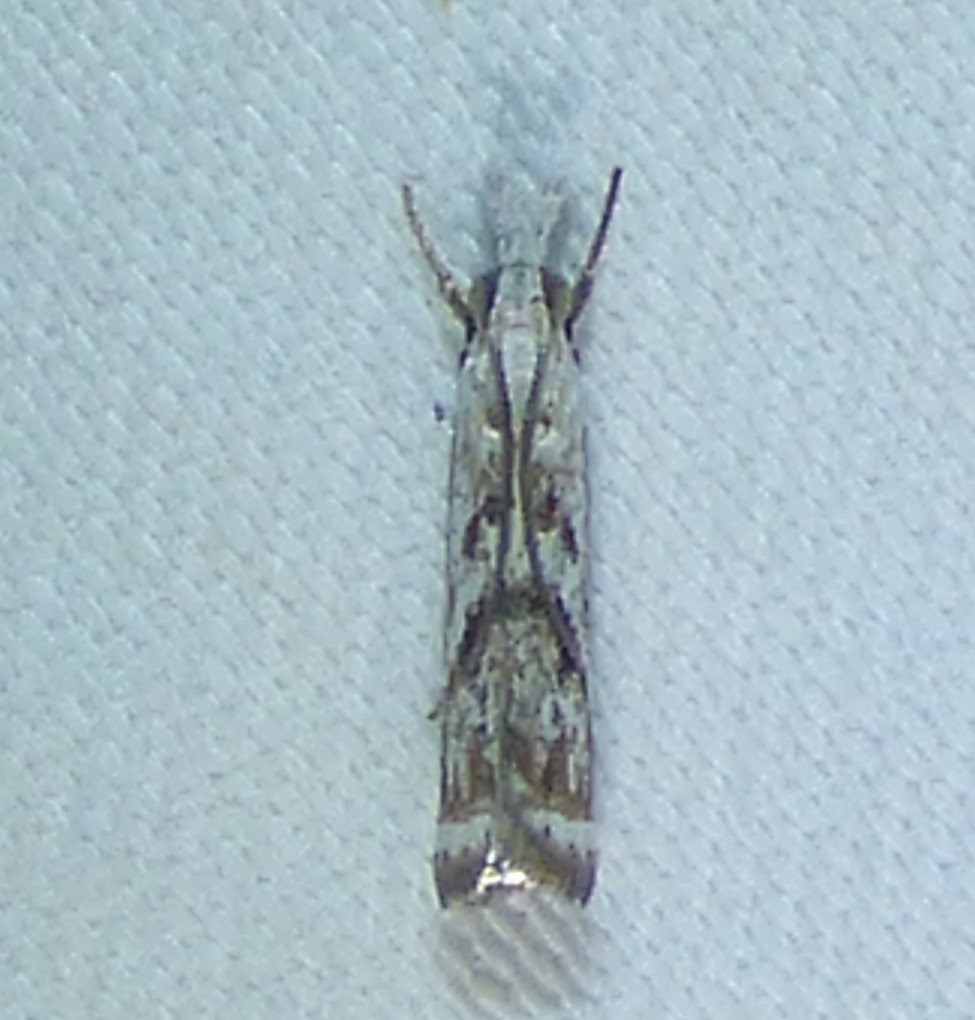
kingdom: Animalia
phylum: Arthropoda
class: Insecta
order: Lepidoptera
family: Crambidae
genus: Microcrambus
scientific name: Microcrambus immunellus
